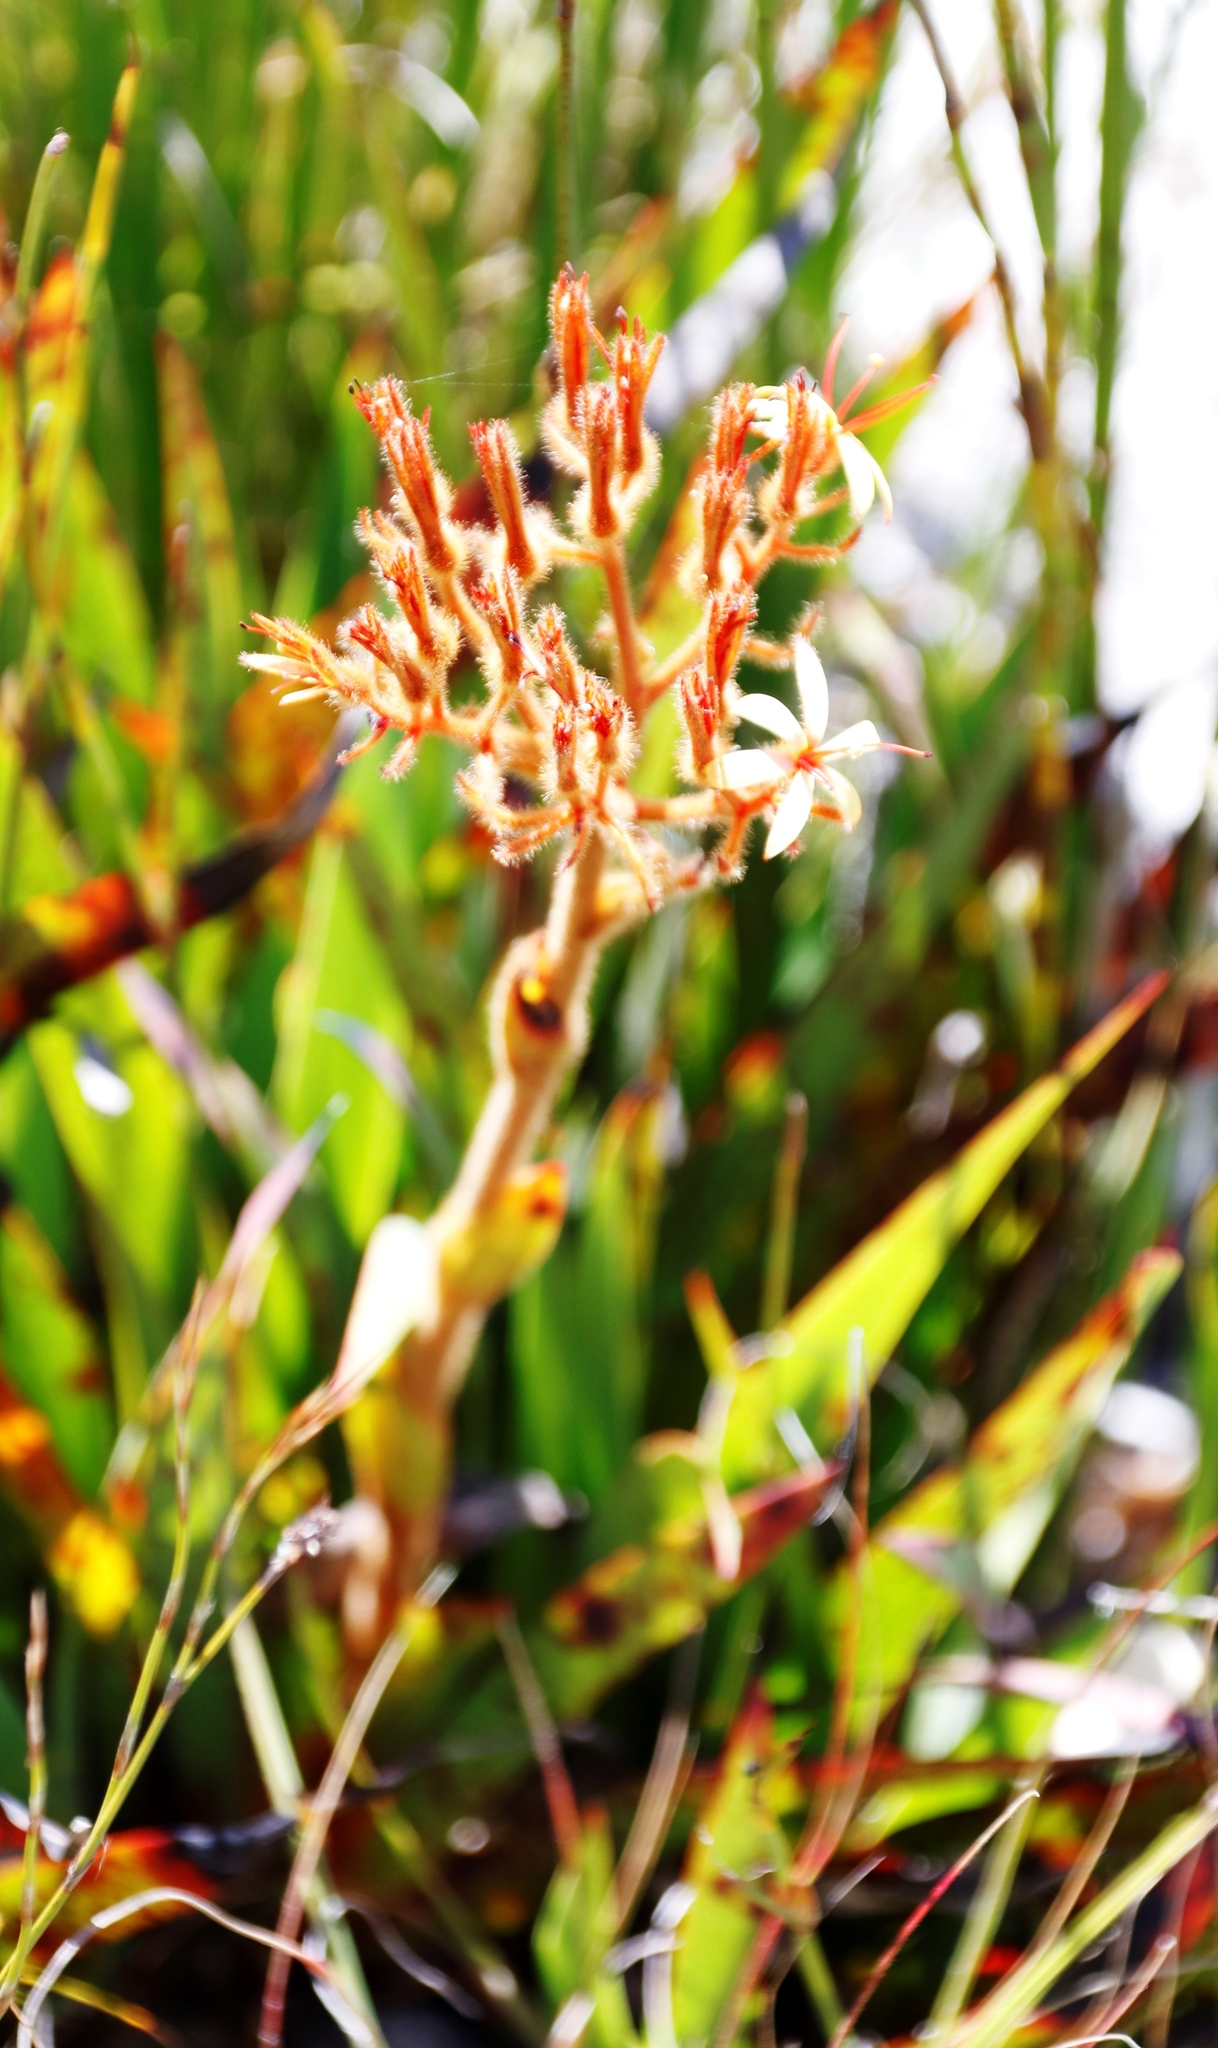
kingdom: Plantae
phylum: Tracheophyta
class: Liliopsida
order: Commelinales
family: Haemodoraceae
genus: Dilatris
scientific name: Dilatris viscosa
